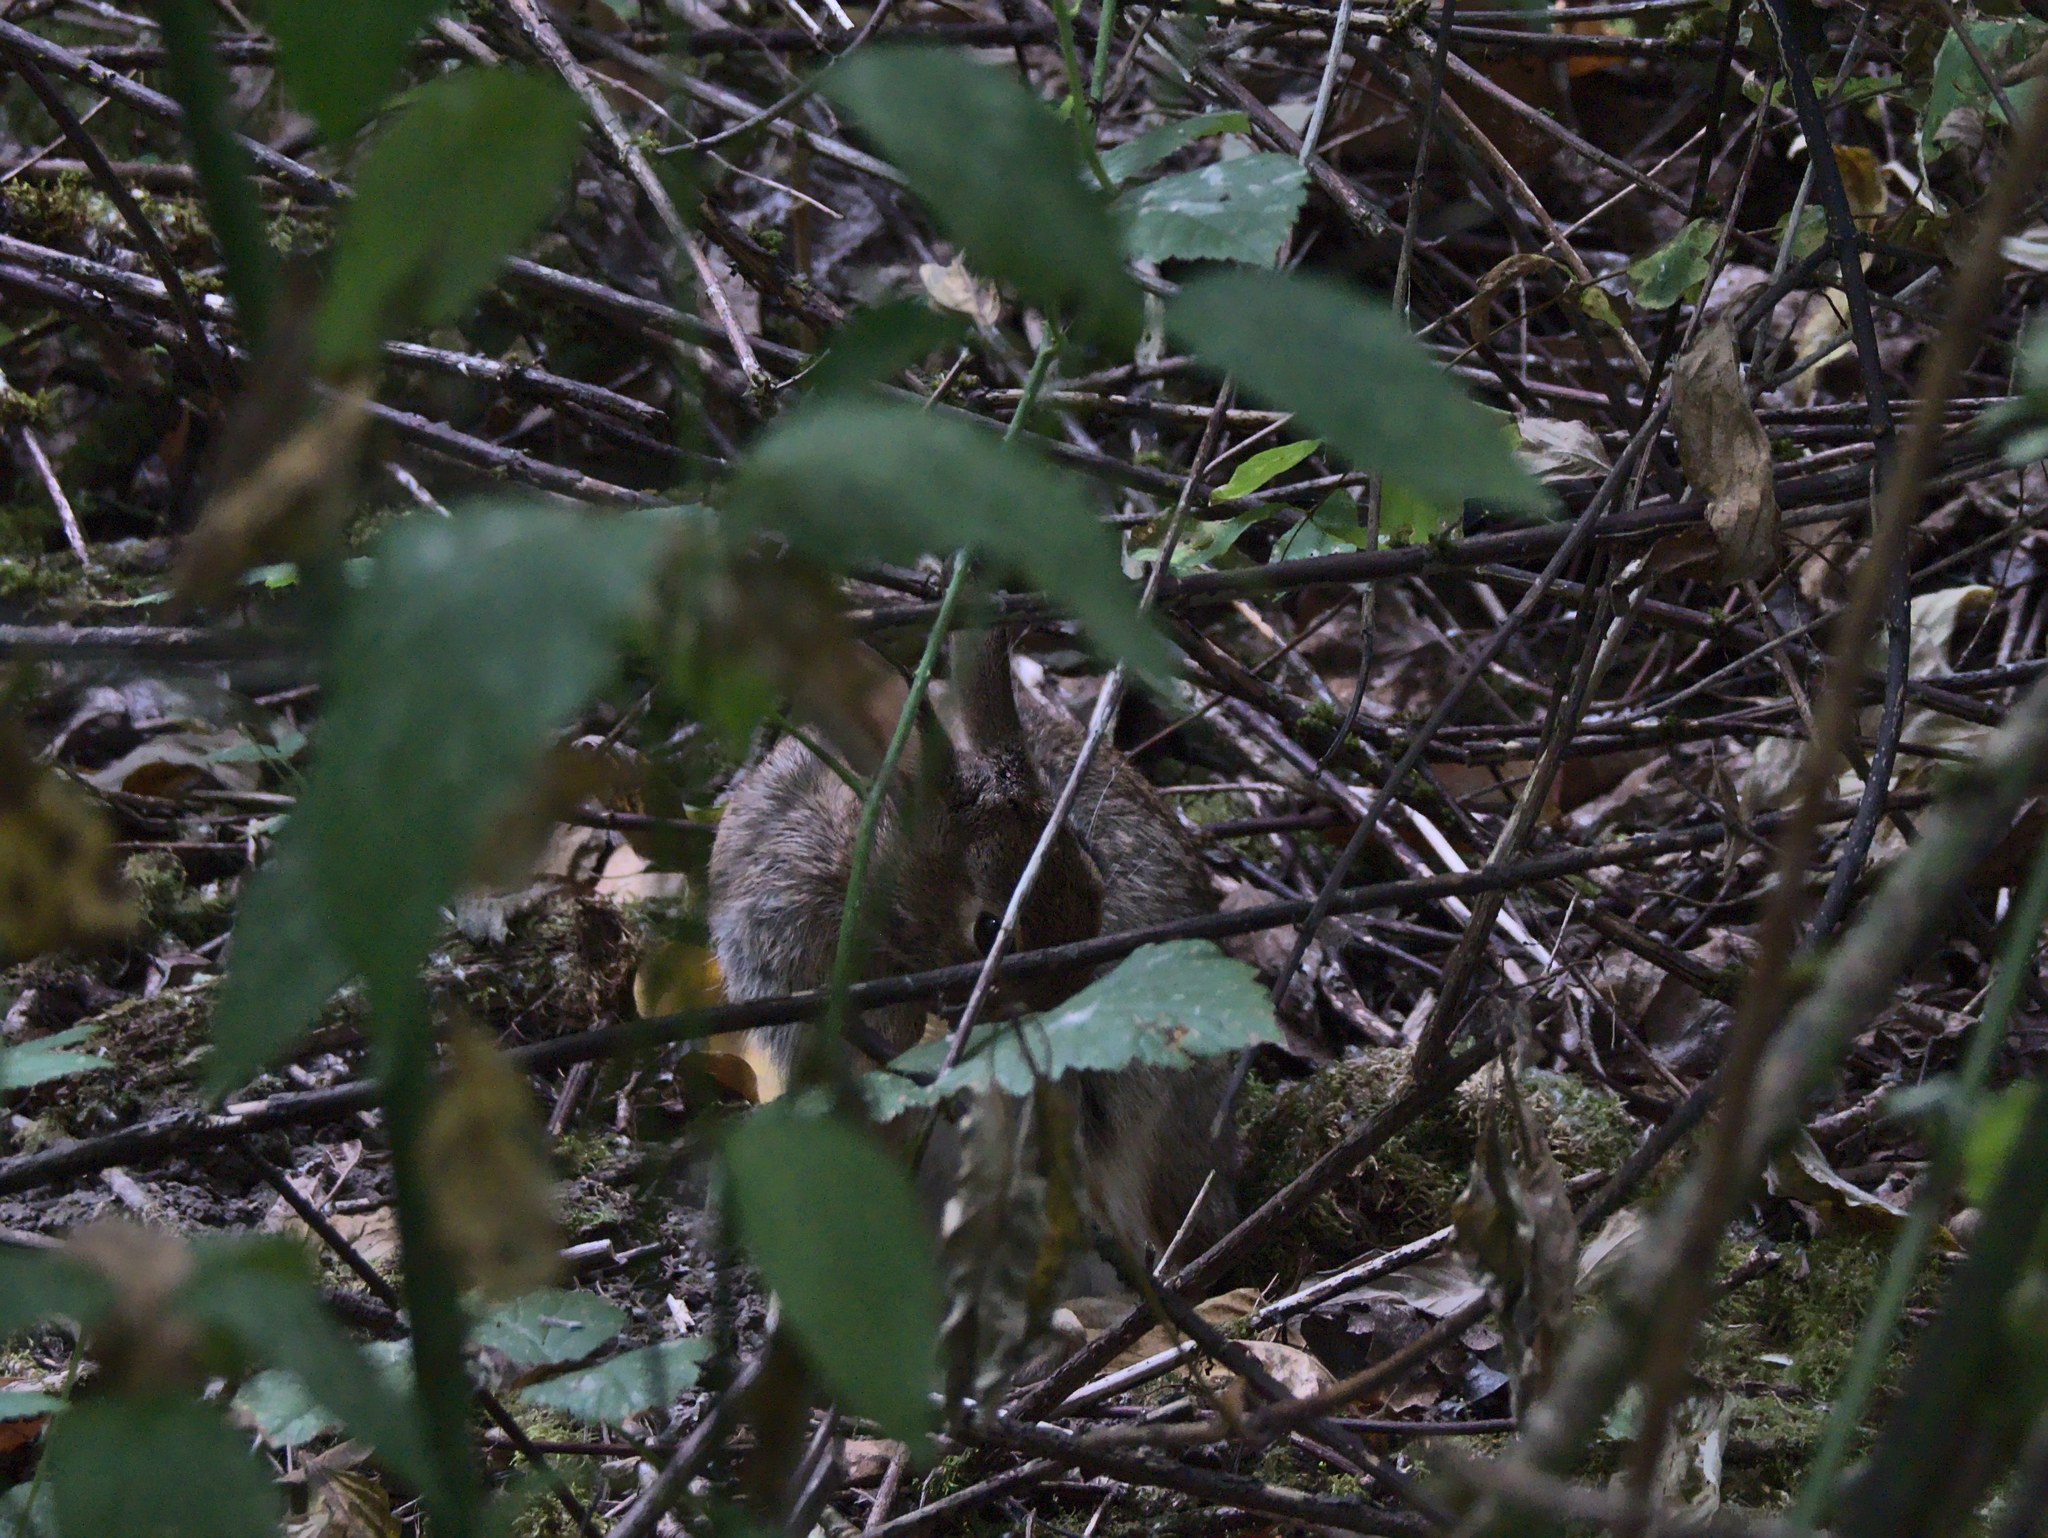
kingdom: Animalia
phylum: Chordata
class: Mammalia
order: Lagomorpha
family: Leporidae
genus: Sylvilagus
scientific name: Sylvilagus
